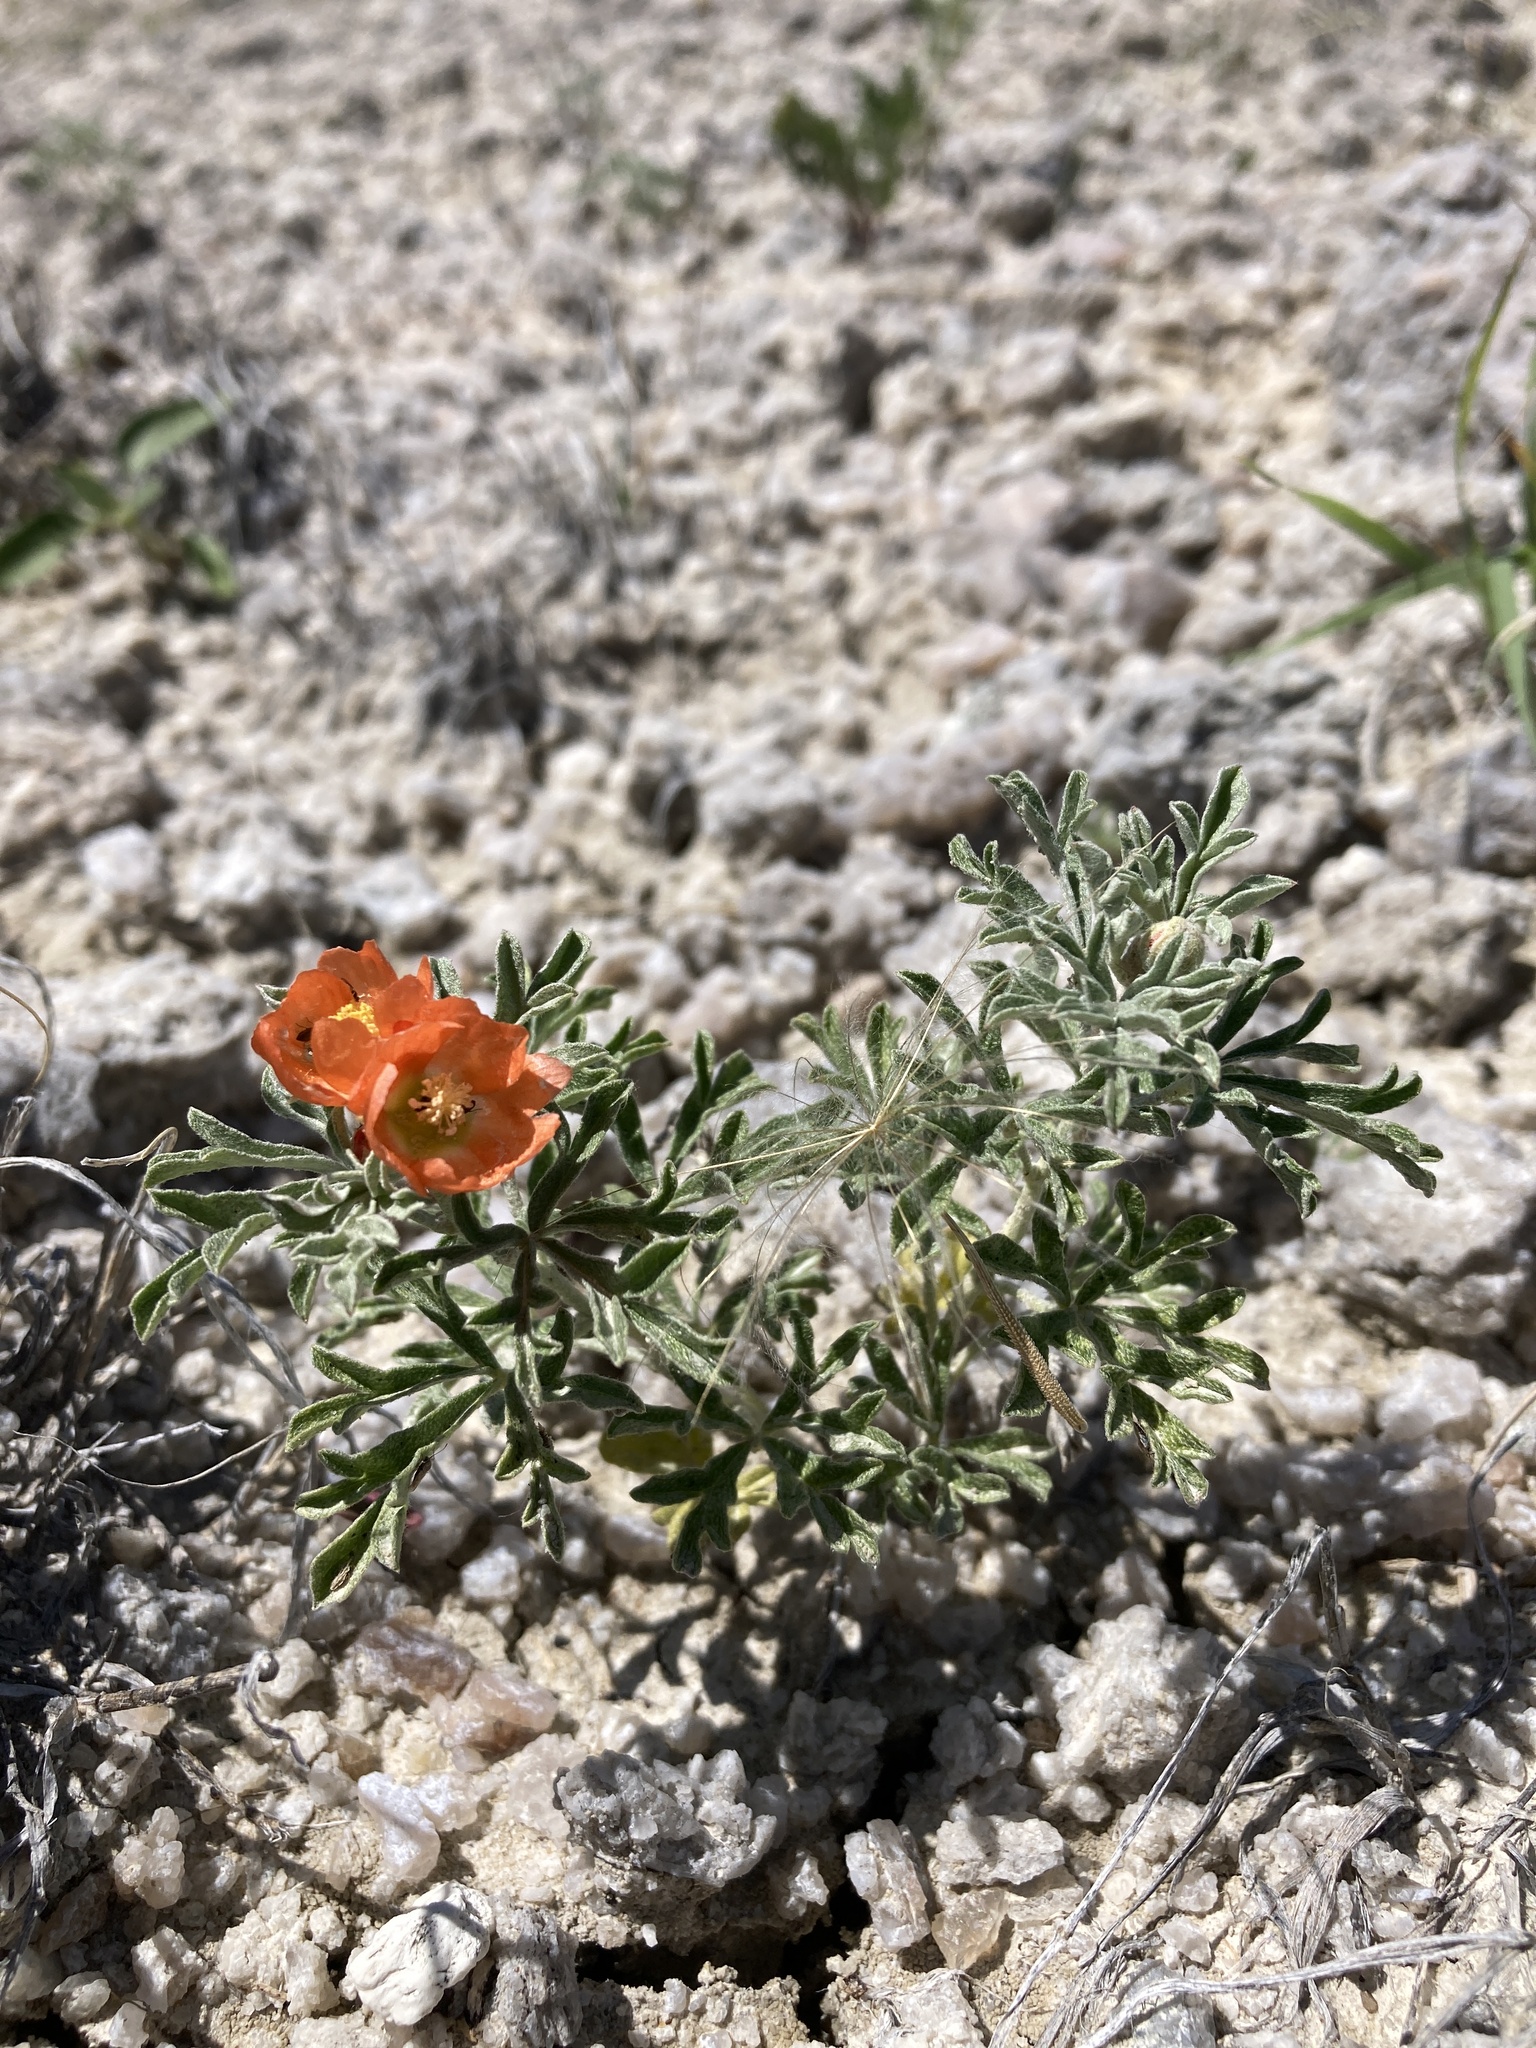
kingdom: Plantae
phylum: Tracheophyta
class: Magnoliopsida
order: Malvales
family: Malvaceae
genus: Sphaeralcea
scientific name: Sphaeralcea coccinea
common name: Moss-rose
